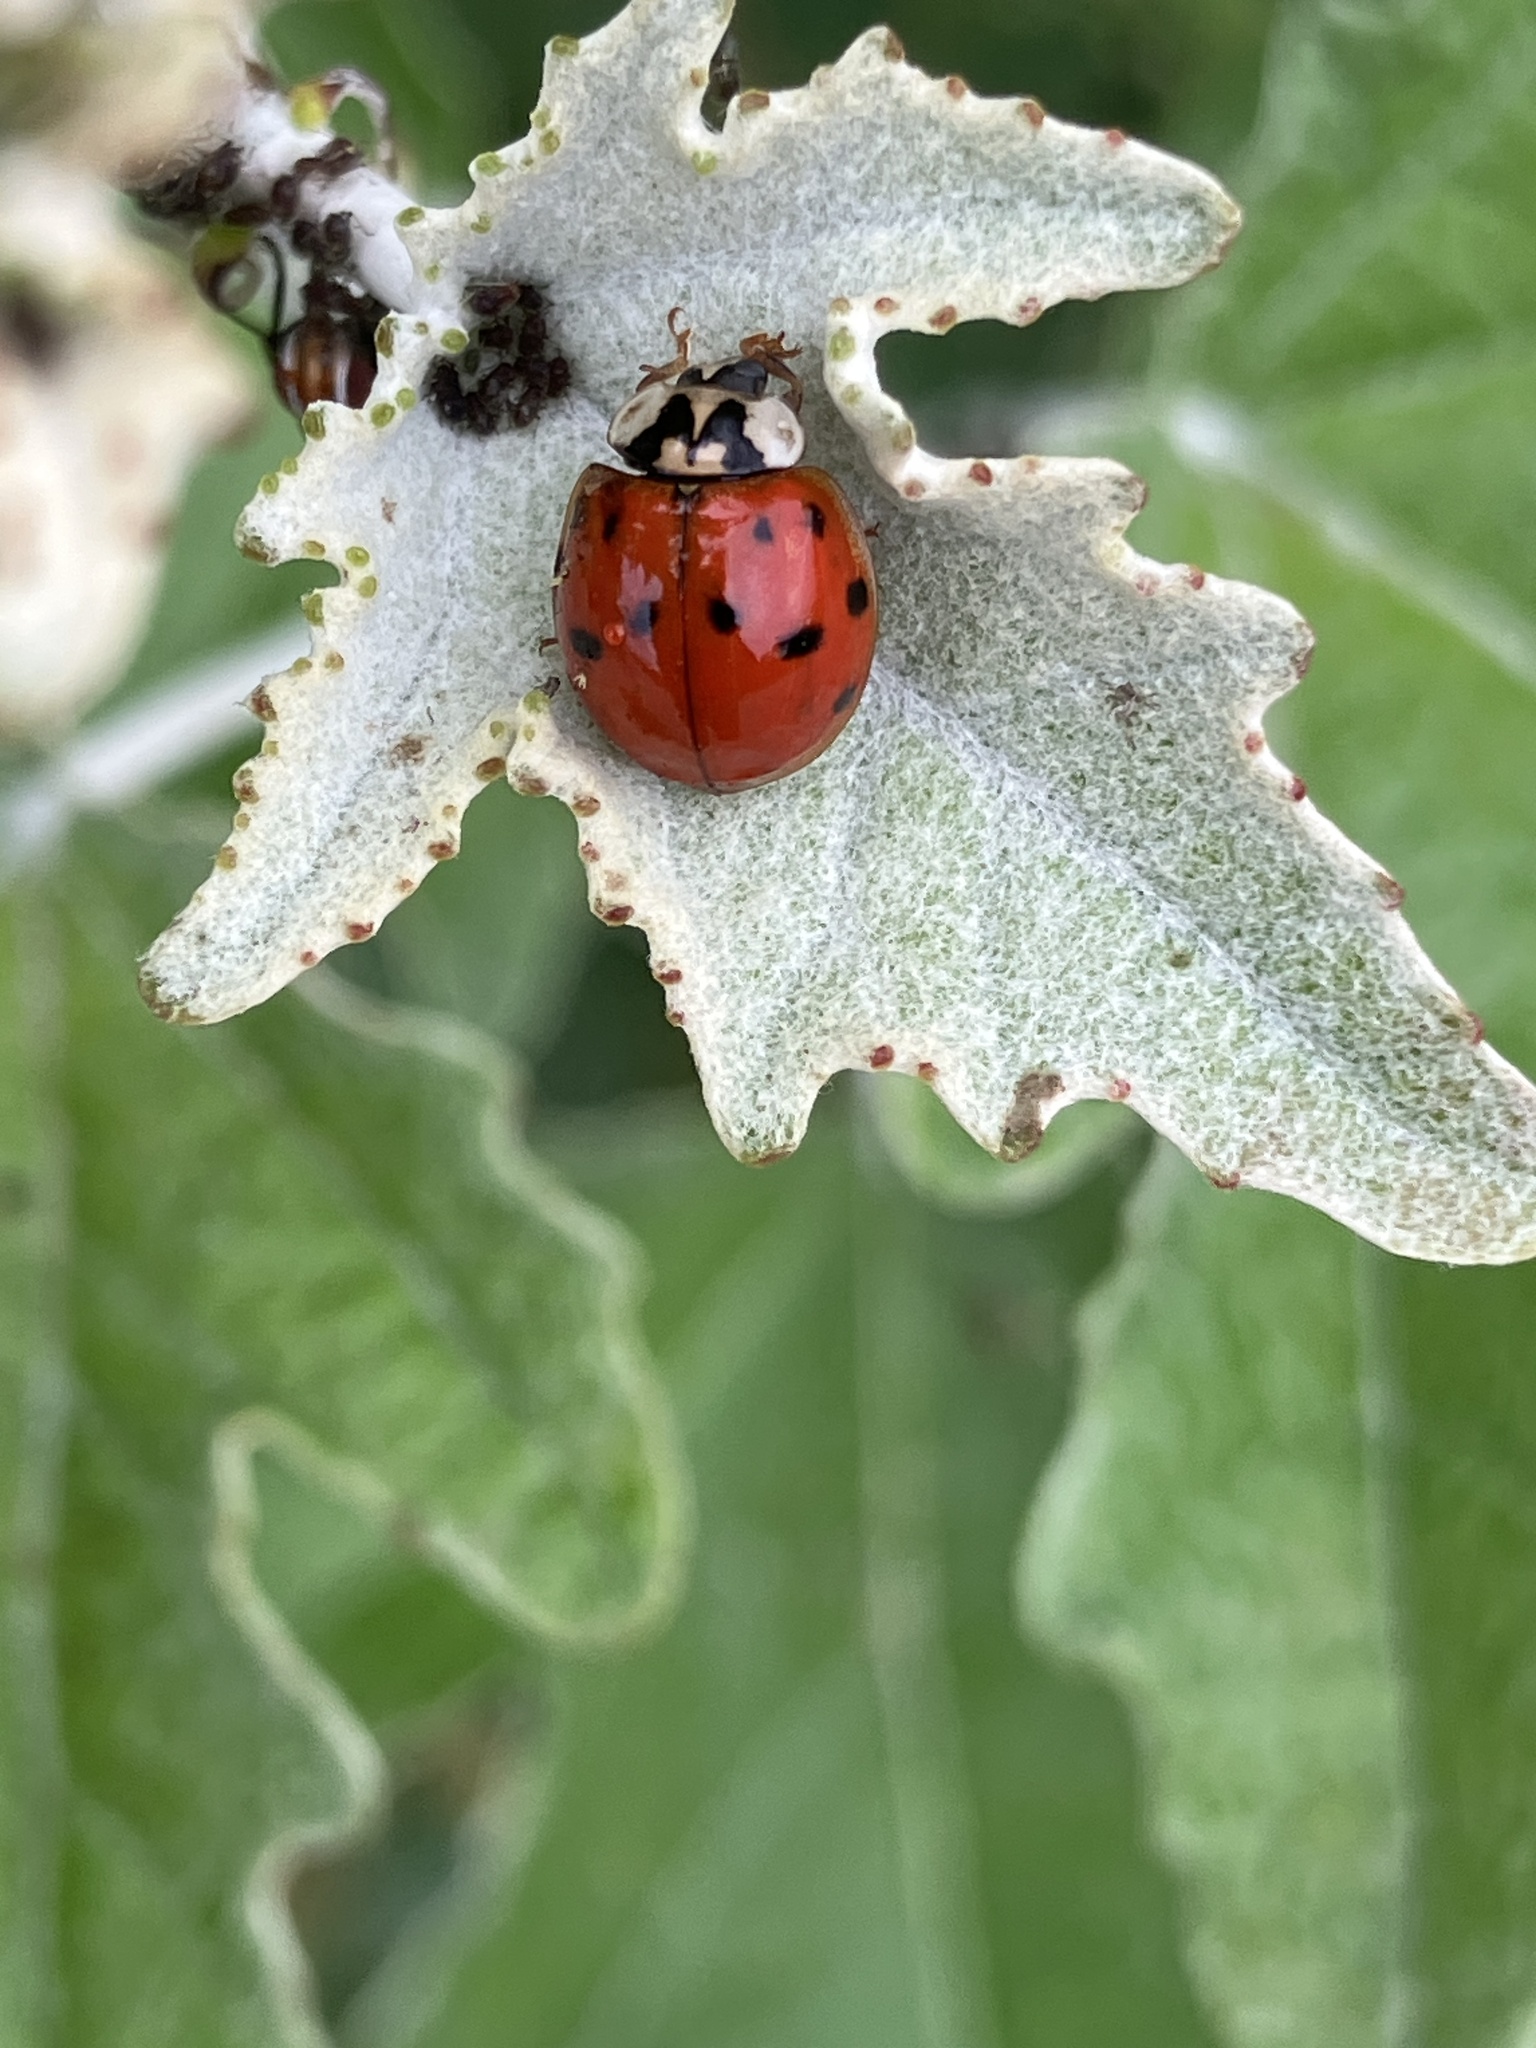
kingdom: Animalia
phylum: Arthropoda
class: Insecta
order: Coleoptera
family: Coccinellidae
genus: Harmonia
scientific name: Harmonia axyridis
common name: Harlequin ladybird
